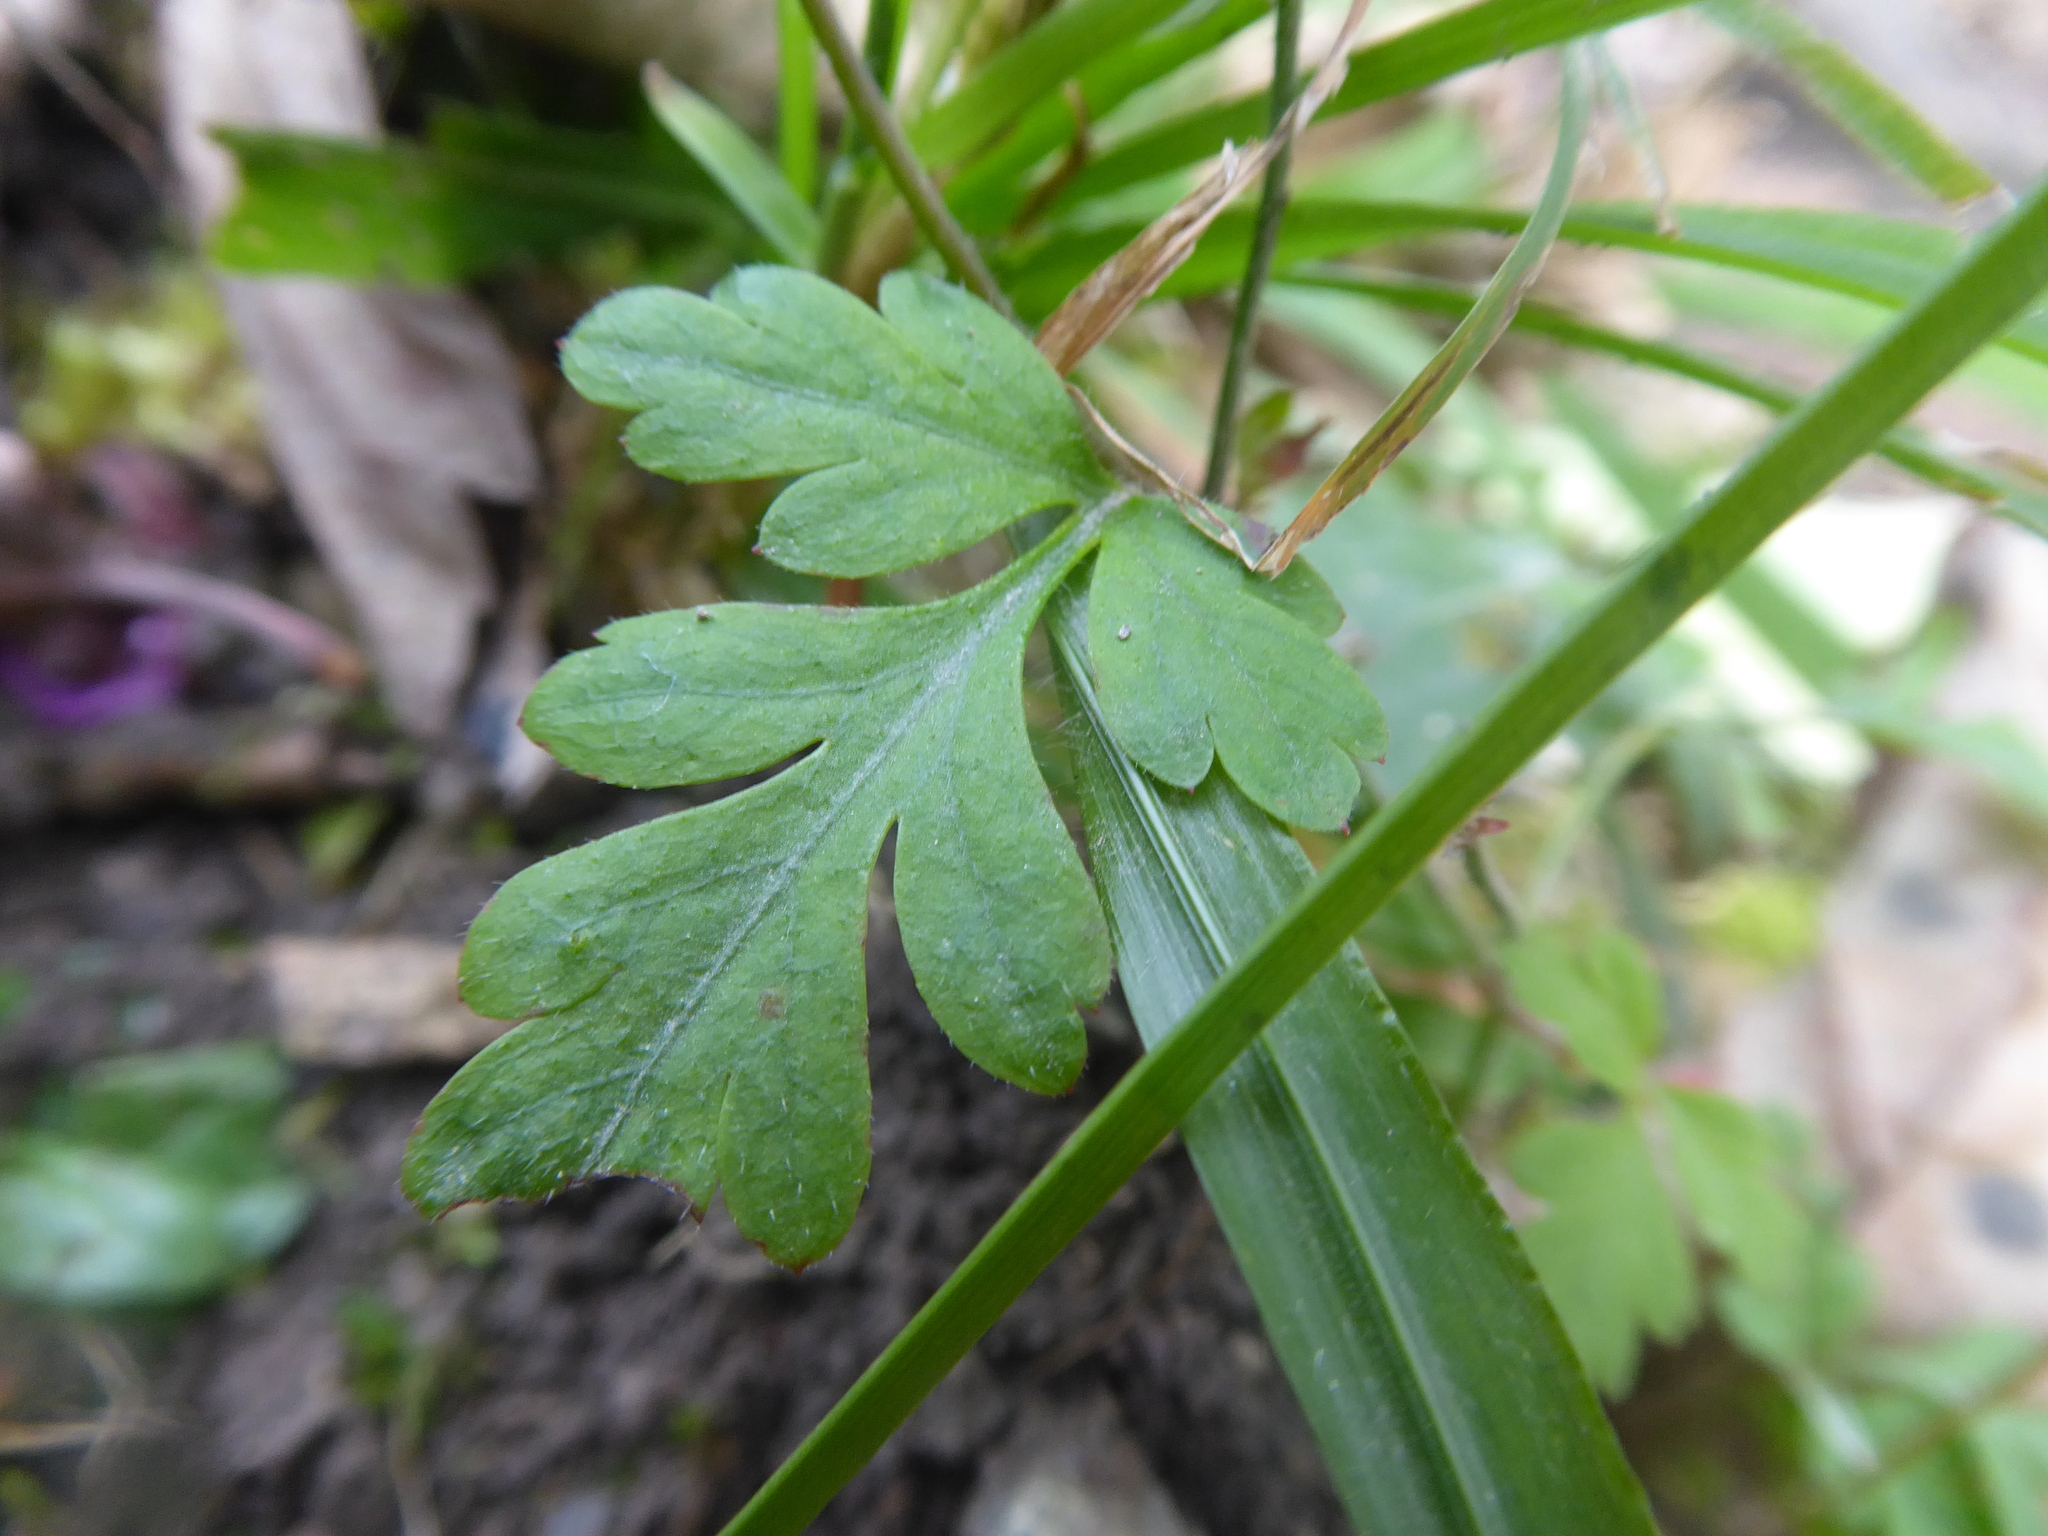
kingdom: Plantae
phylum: Tracheophyta
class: Magnoliopsida
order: Geraniales
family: Geraniaceae
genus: Geranium
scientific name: Geranium robertianum
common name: Herb-robert
